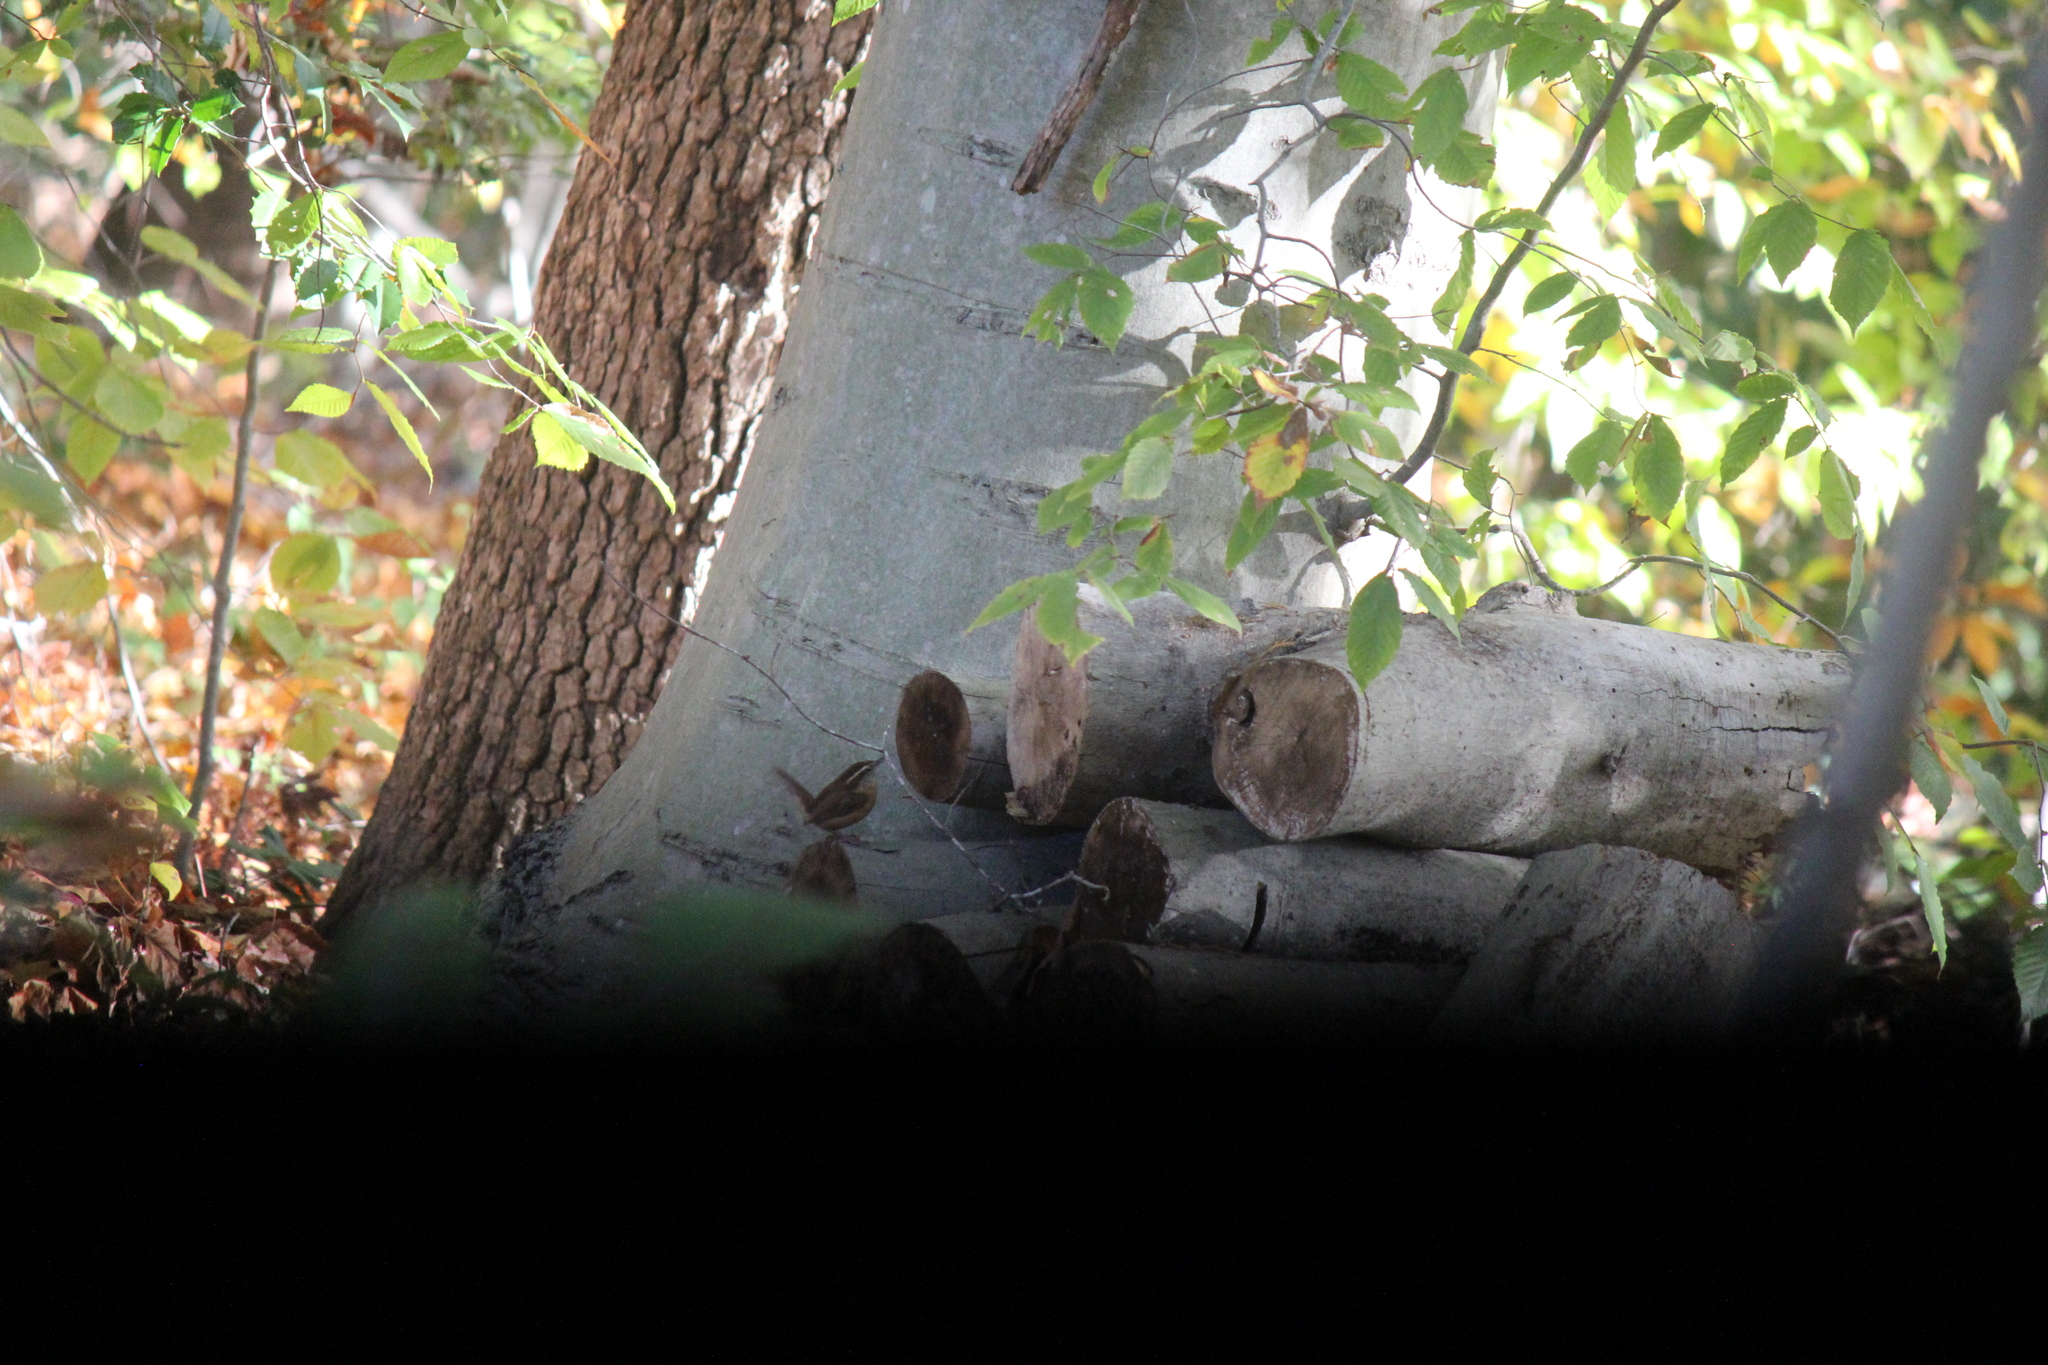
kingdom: Animalia
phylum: Chordata
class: Aves
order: Passeriformes
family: Troglodytidae
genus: Thryothorus
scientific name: Thryothorus ludovicianus
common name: Carolina wren
